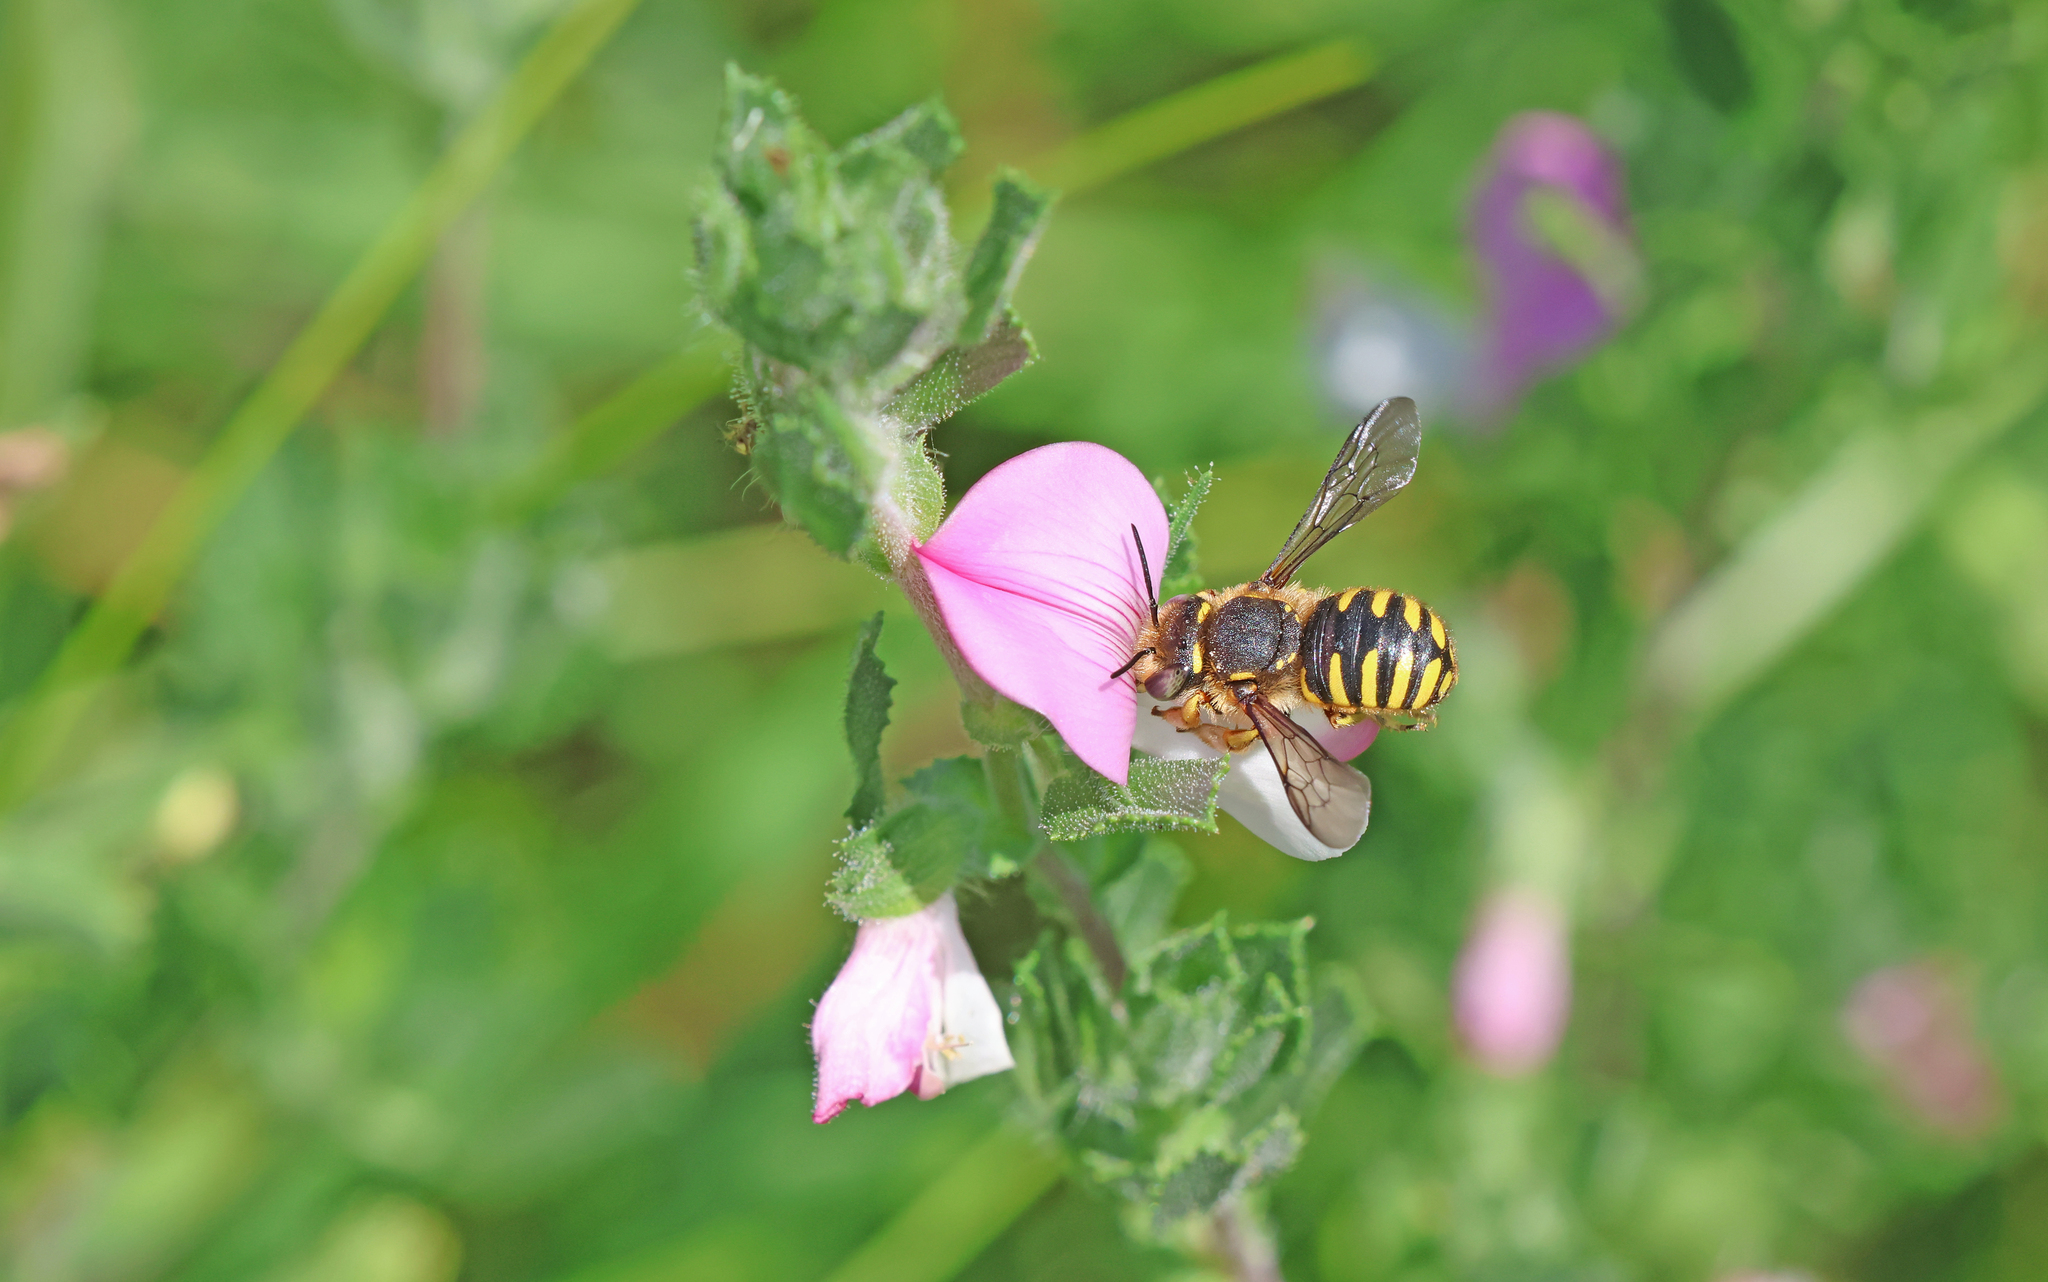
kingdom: Animalia
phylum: Arthropoda
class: Insecta
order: Hymenoptera
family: Megachilidae
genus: Anthidium
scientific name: Anthidium manicatum
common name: Wool carder bee
